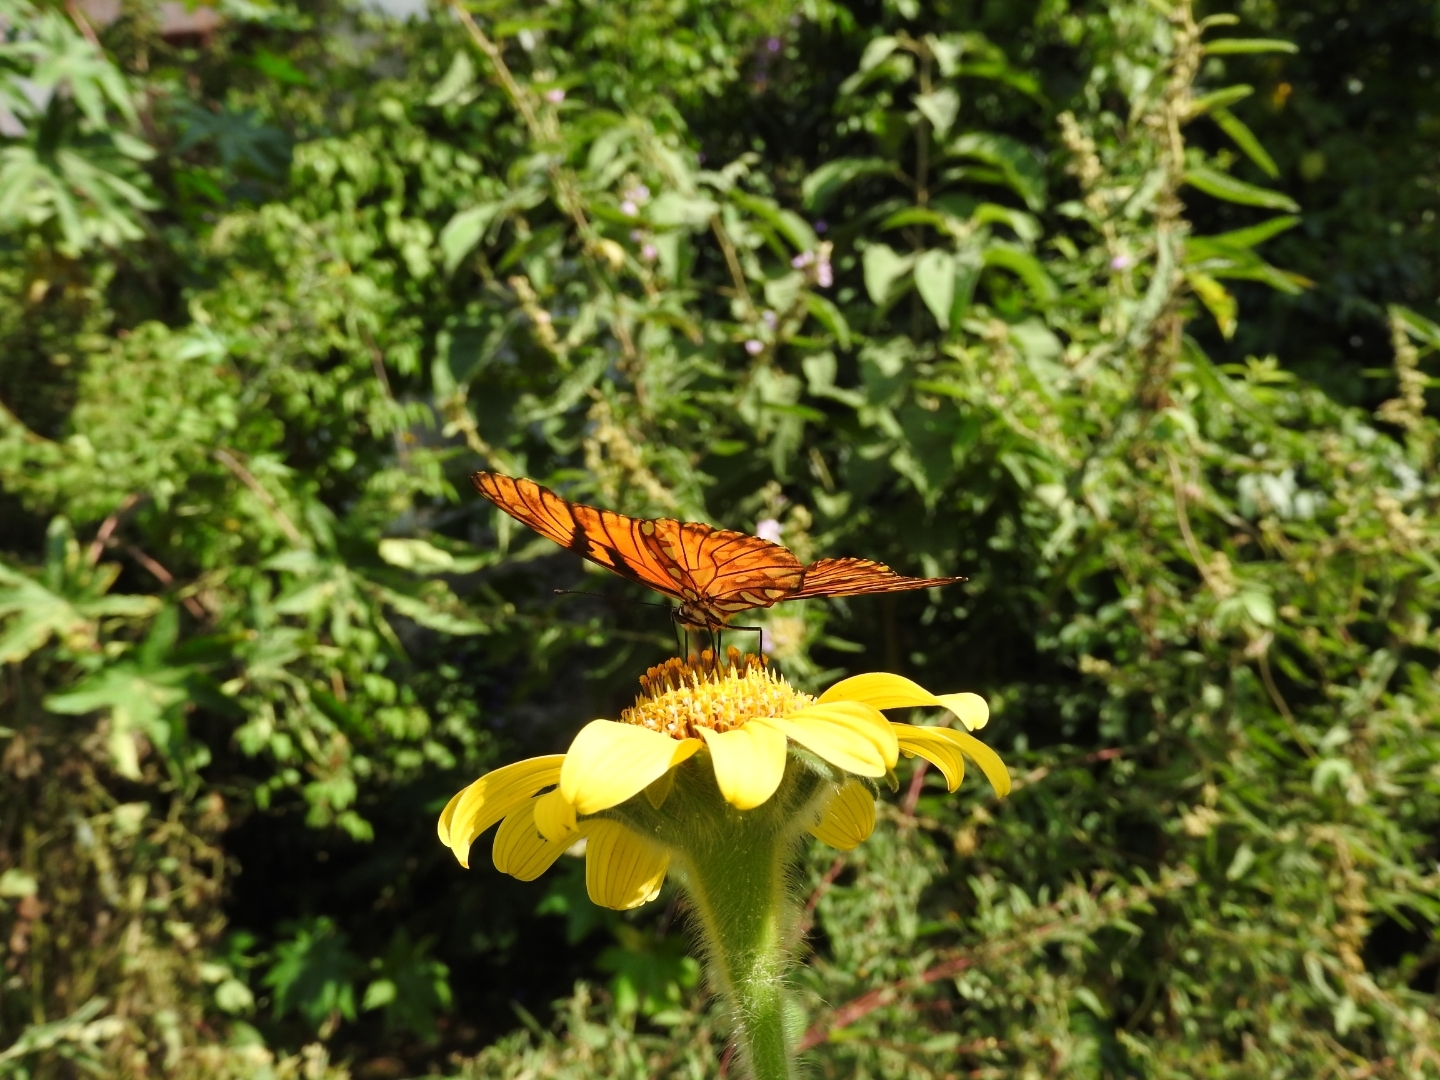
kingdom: Animalia
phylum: Arthropoda
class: Insecta
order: Lepidoptera
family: Nymphalidae
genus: Dione
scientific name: Dione juno
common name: Juno silverspot
